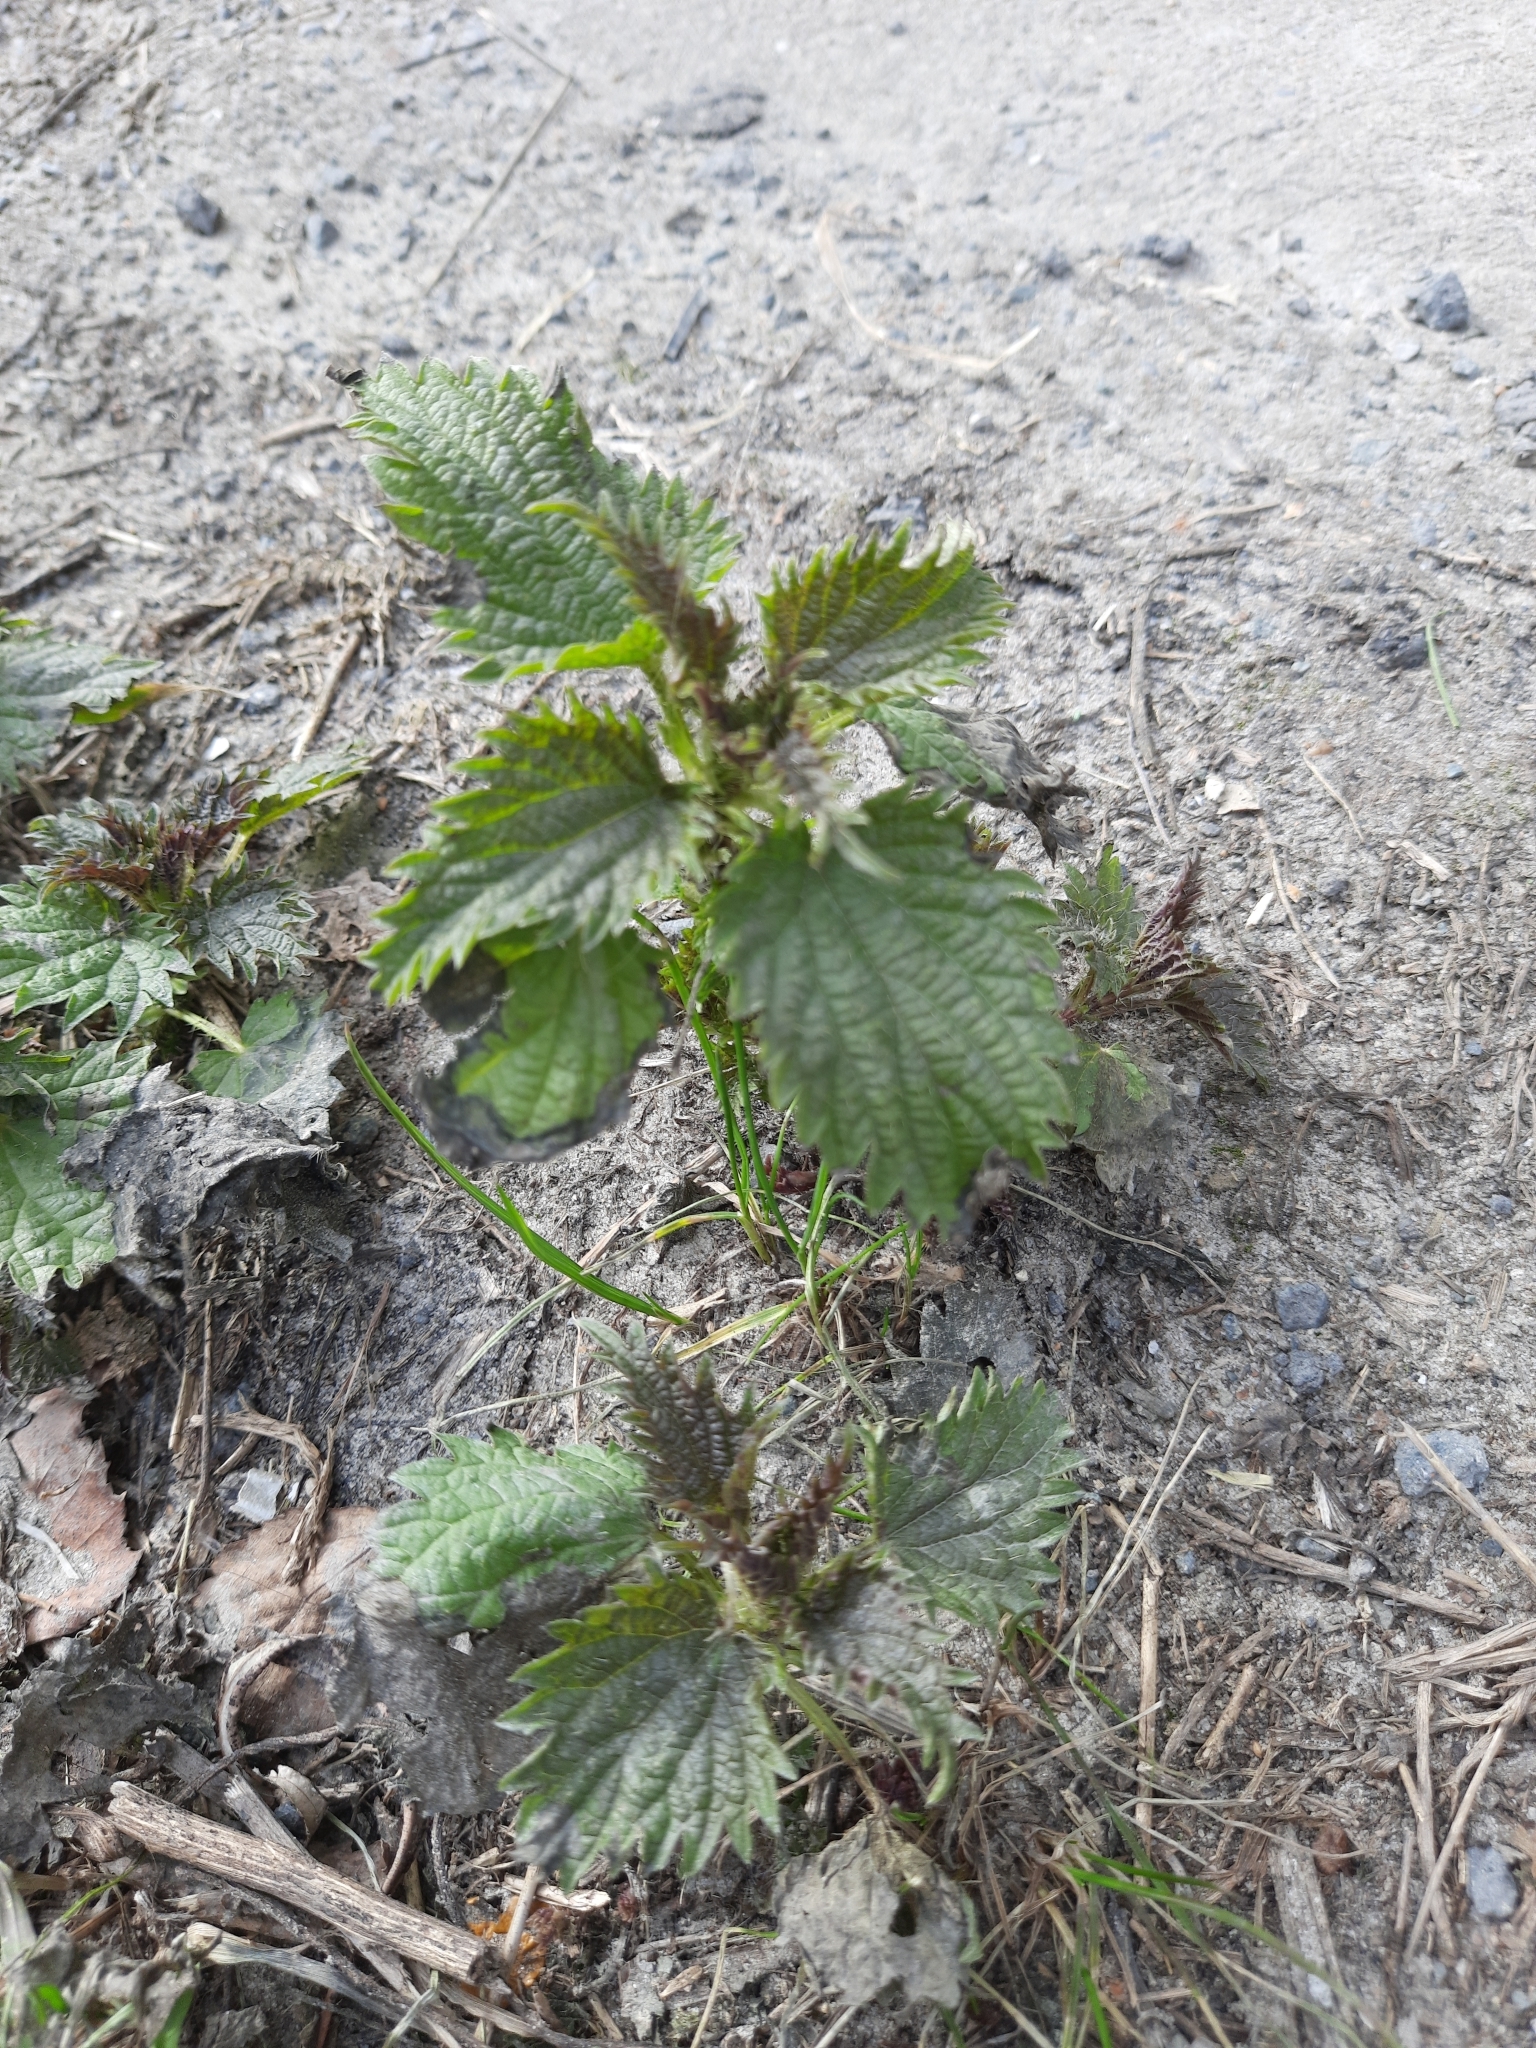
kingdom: Plantae
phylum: Tracheophyta
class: Magnoliopsida
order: Rosales
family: Urticaceae
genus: Urtica
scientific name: Urtica dioica
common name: Common nettle
